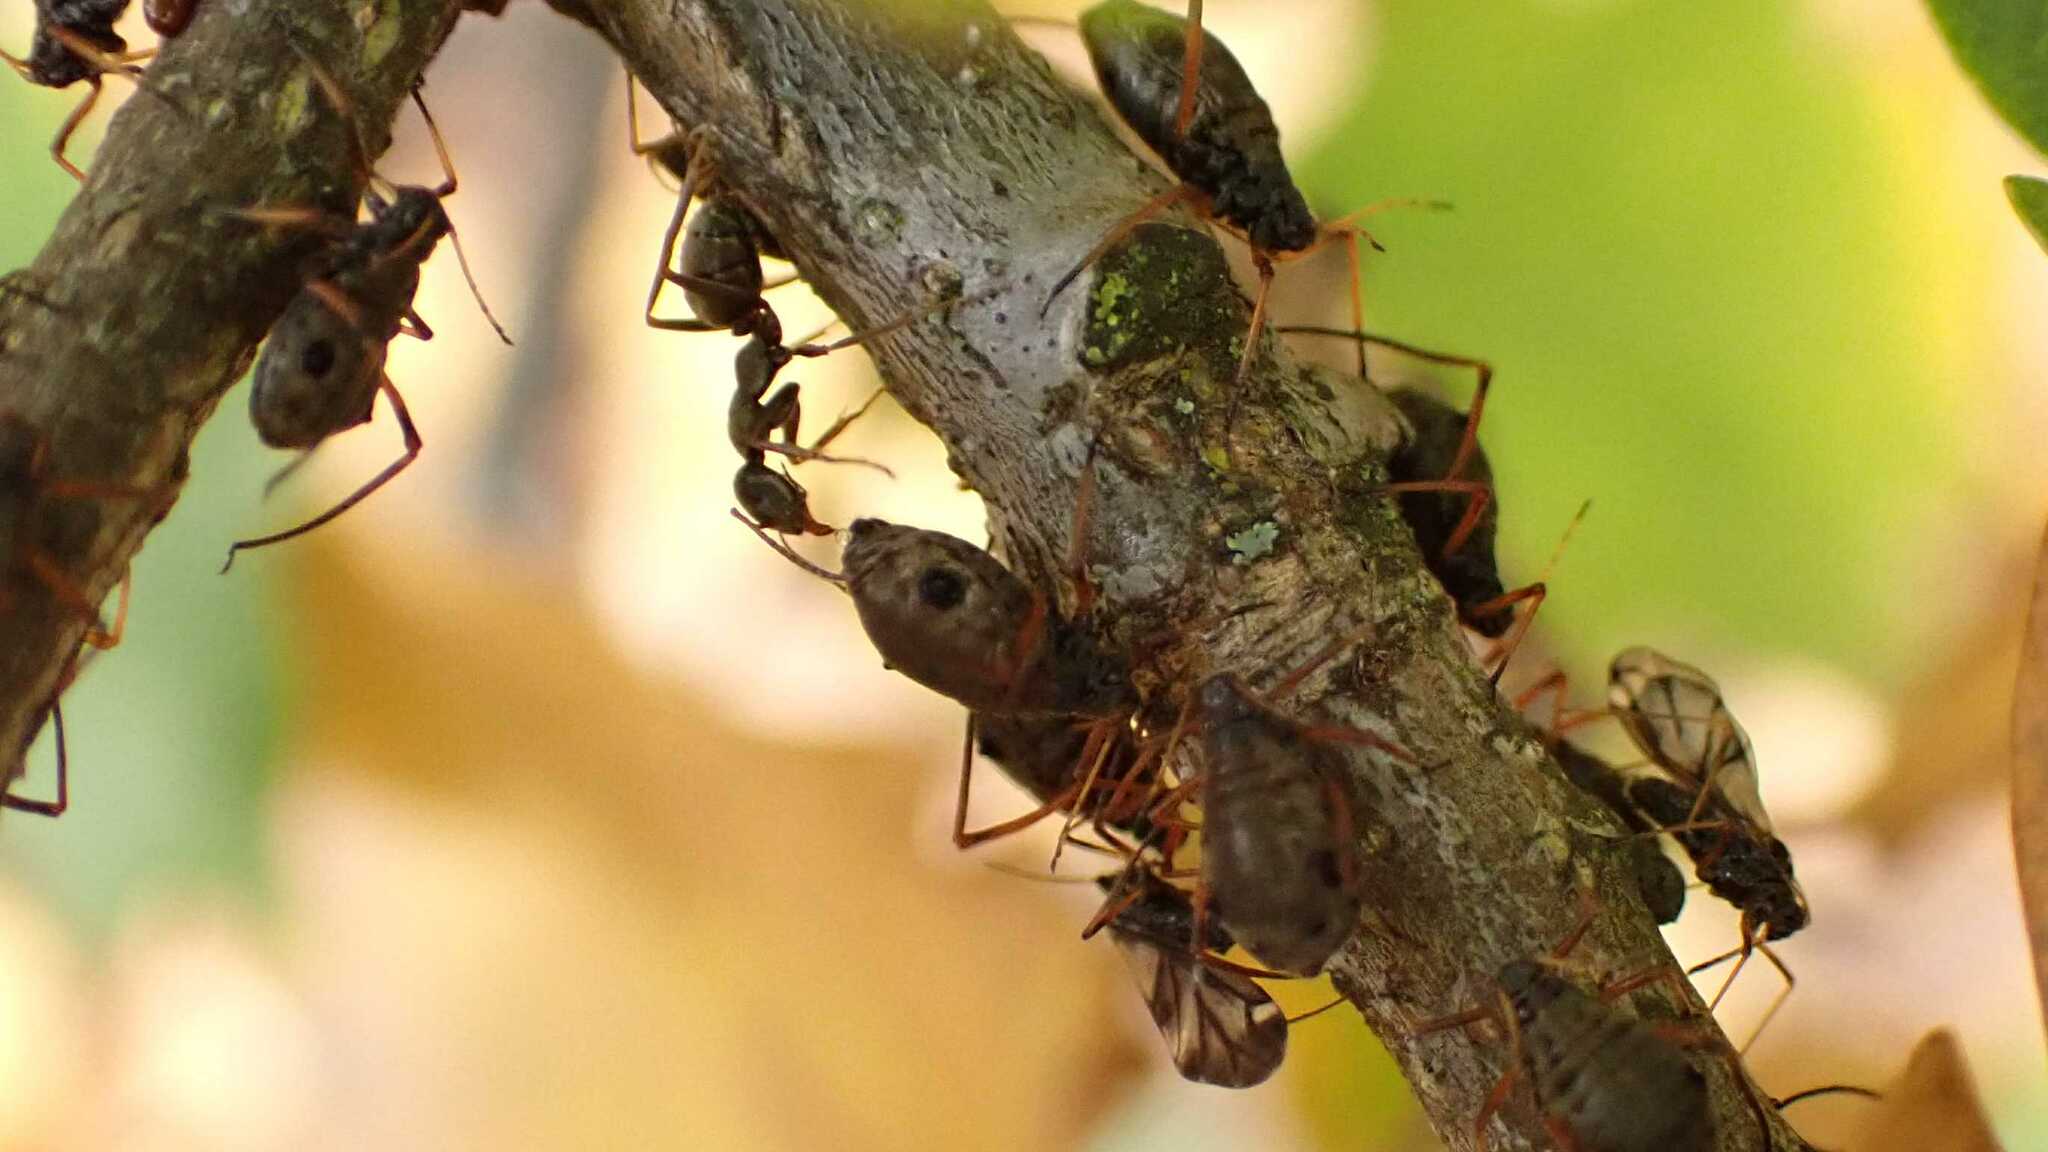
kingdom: Animalia
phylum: Arthropoda
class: Insecta
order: Hymenoptera
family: Formicidae
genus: Formica
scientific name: Formica cinerea
